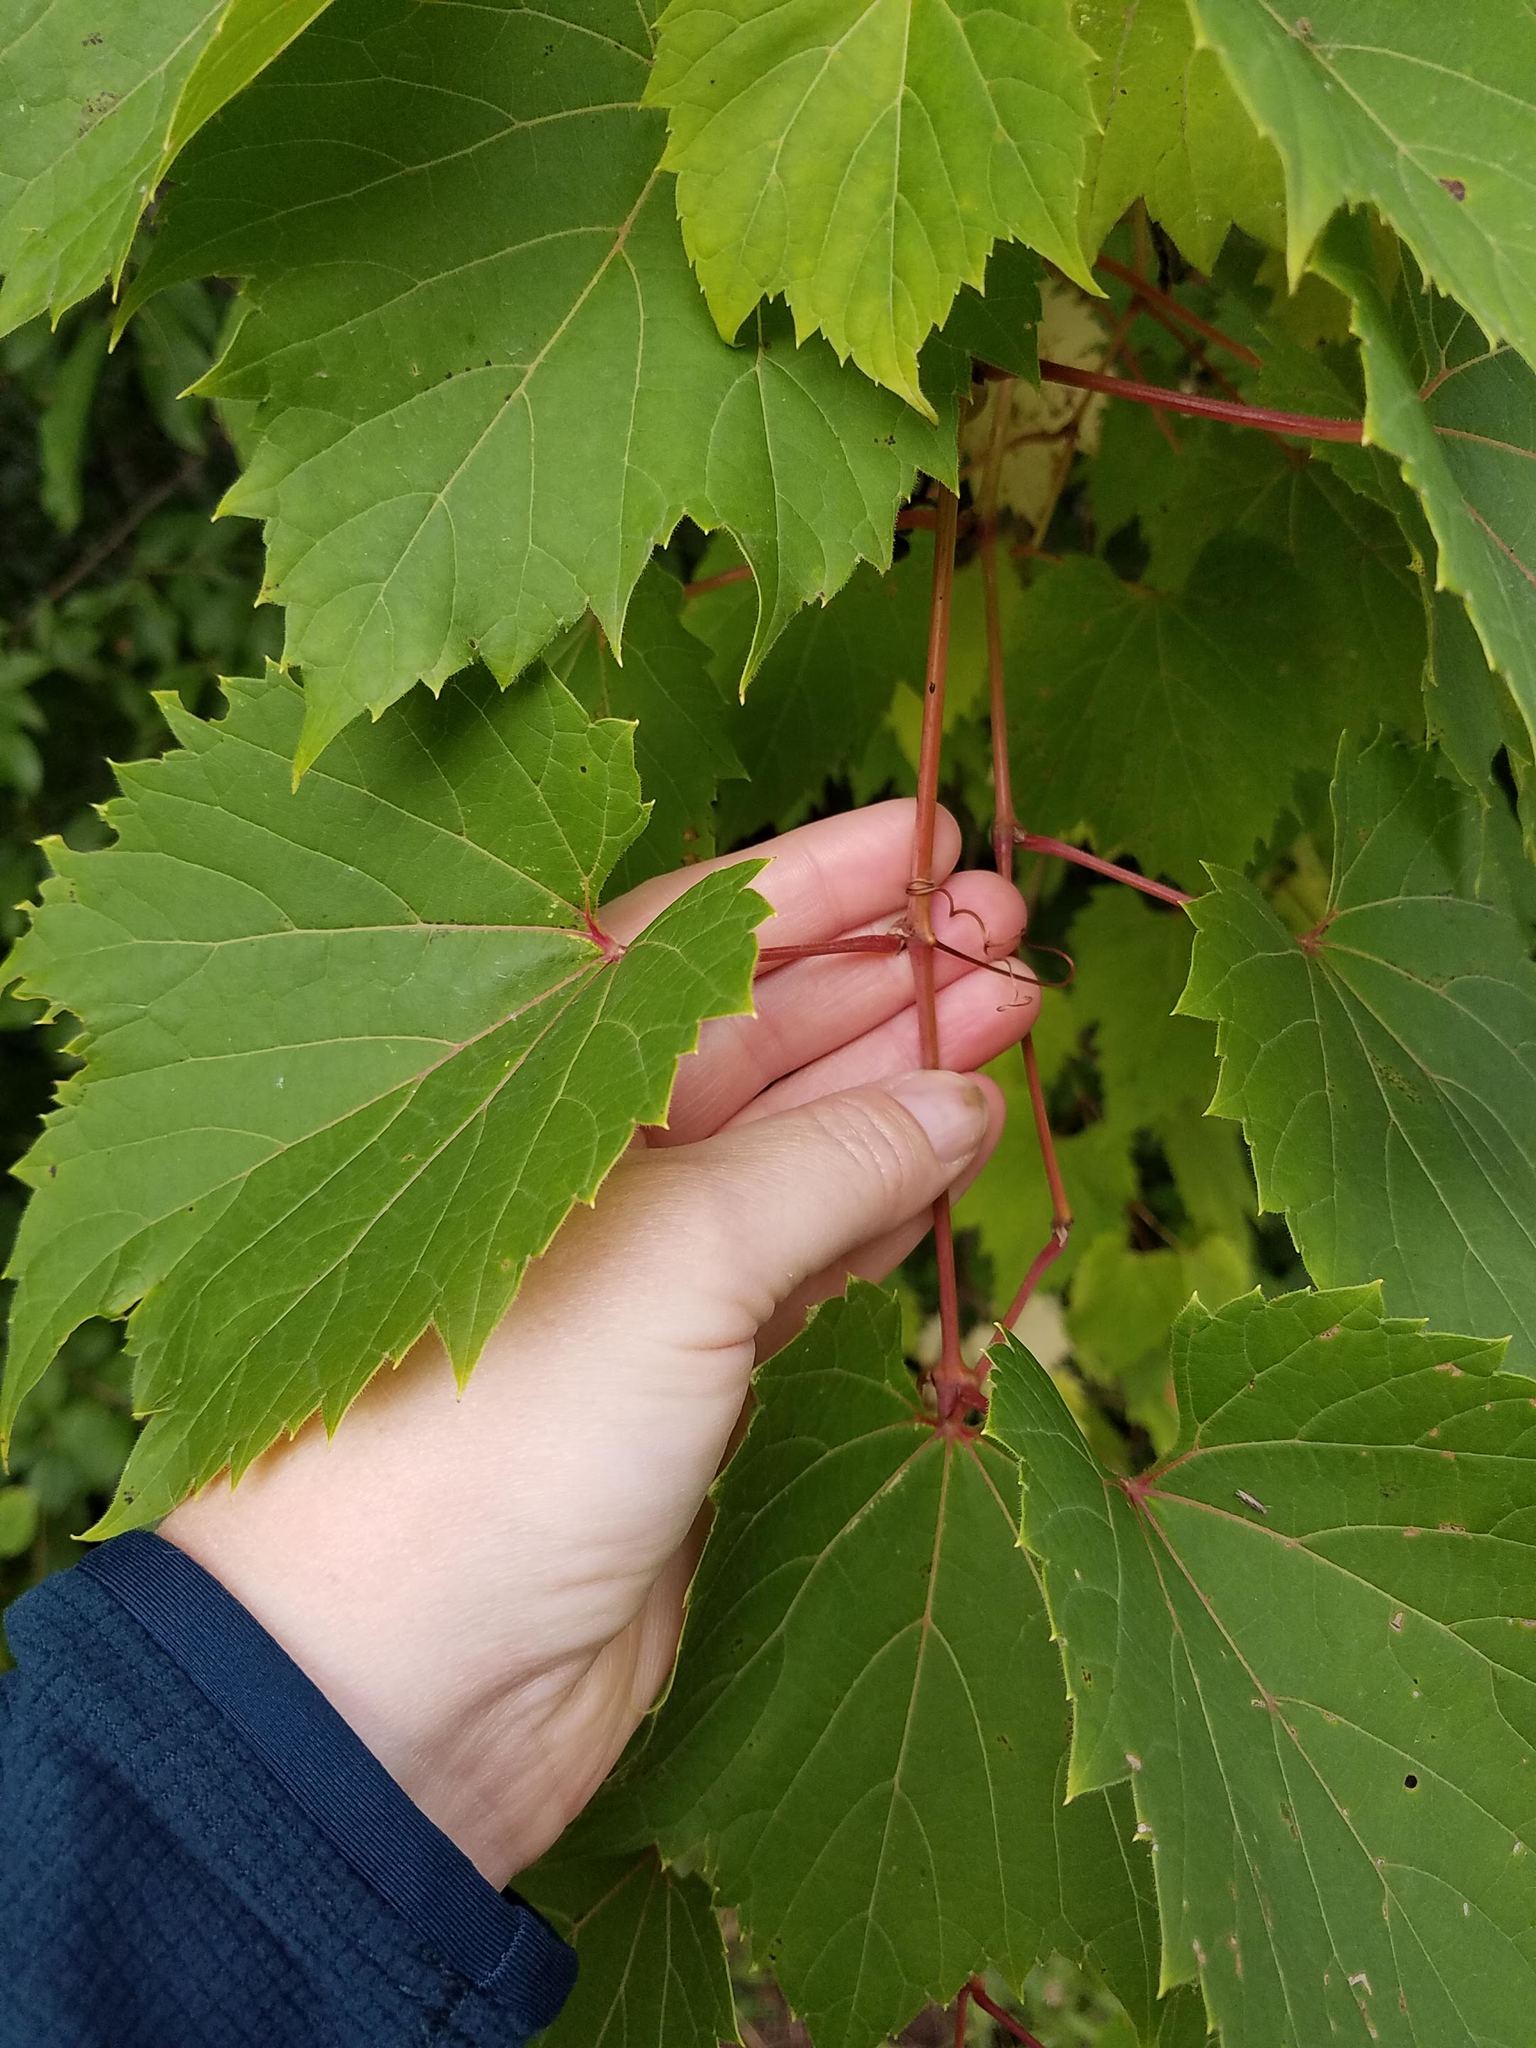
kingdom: Plantae
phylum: Tracheophyta
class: Magnoliopsida
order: Vitales
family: Vitaceae
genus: Vitis
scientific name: Vitis riparia
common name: Frost grape
